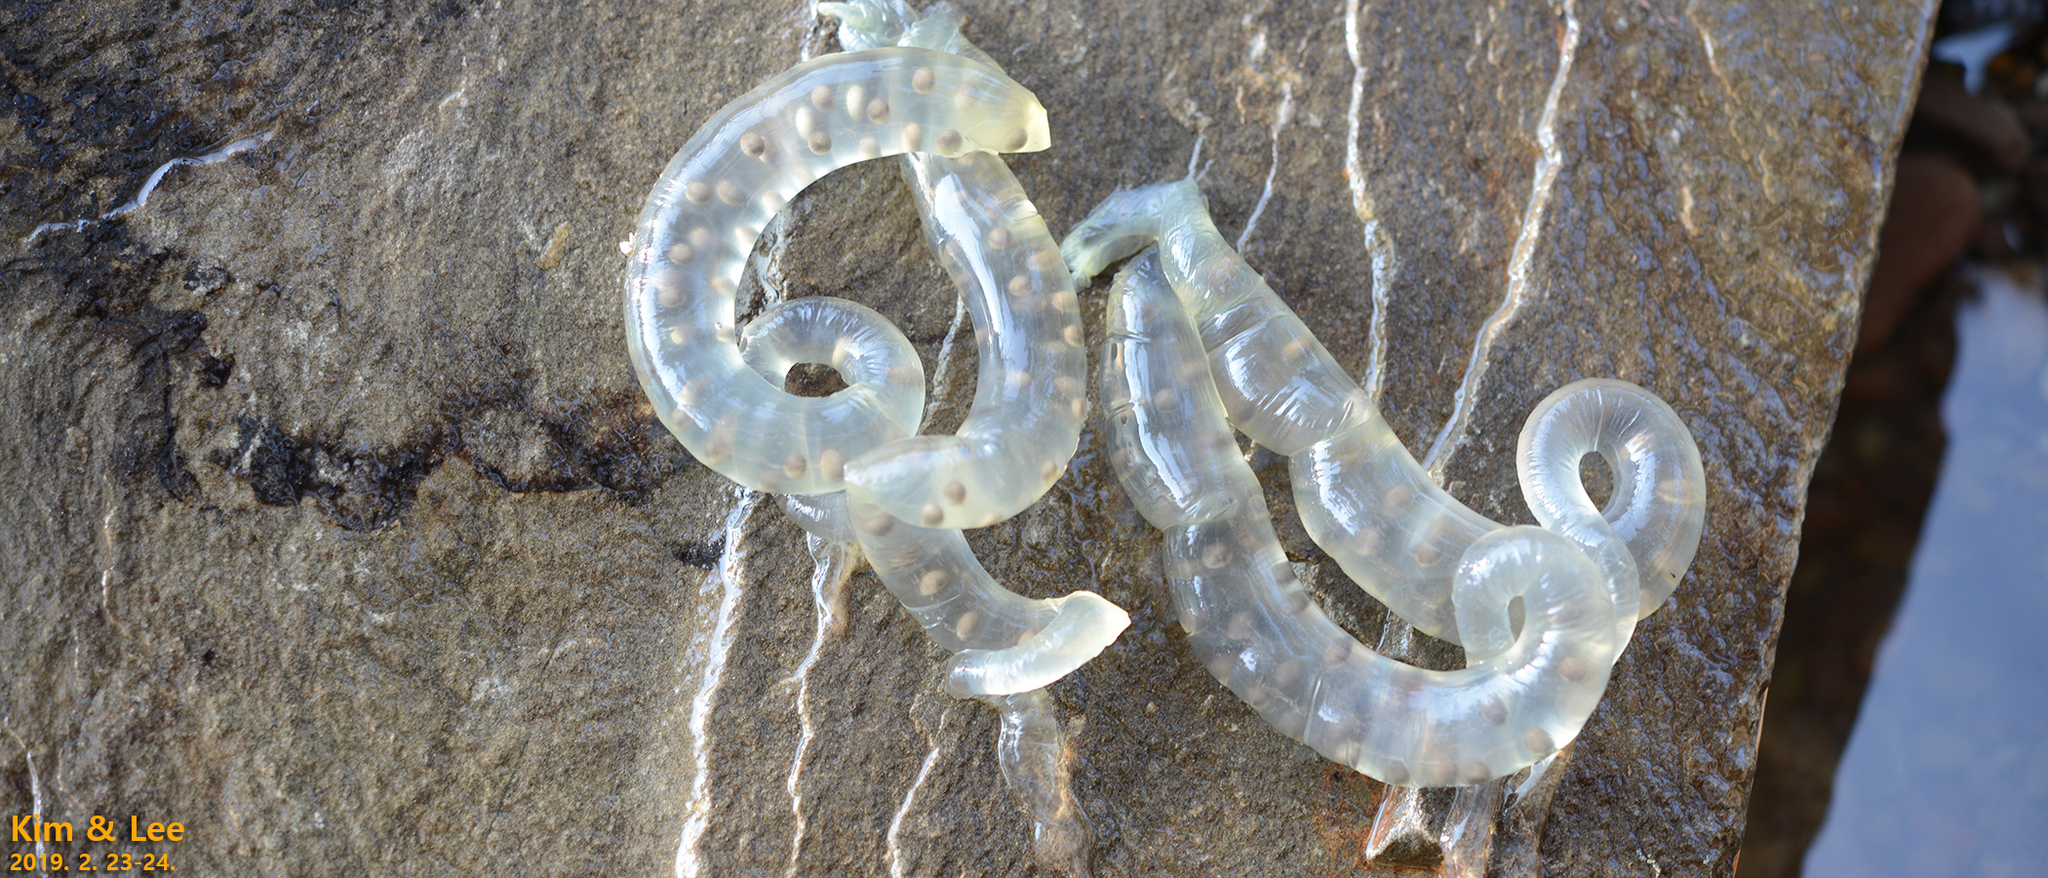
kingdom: Animalia
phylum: Chordata
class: Amphibia
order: Caudata
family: Hynobiidae
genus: Hynobius
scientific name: Hynobius perplicatus
